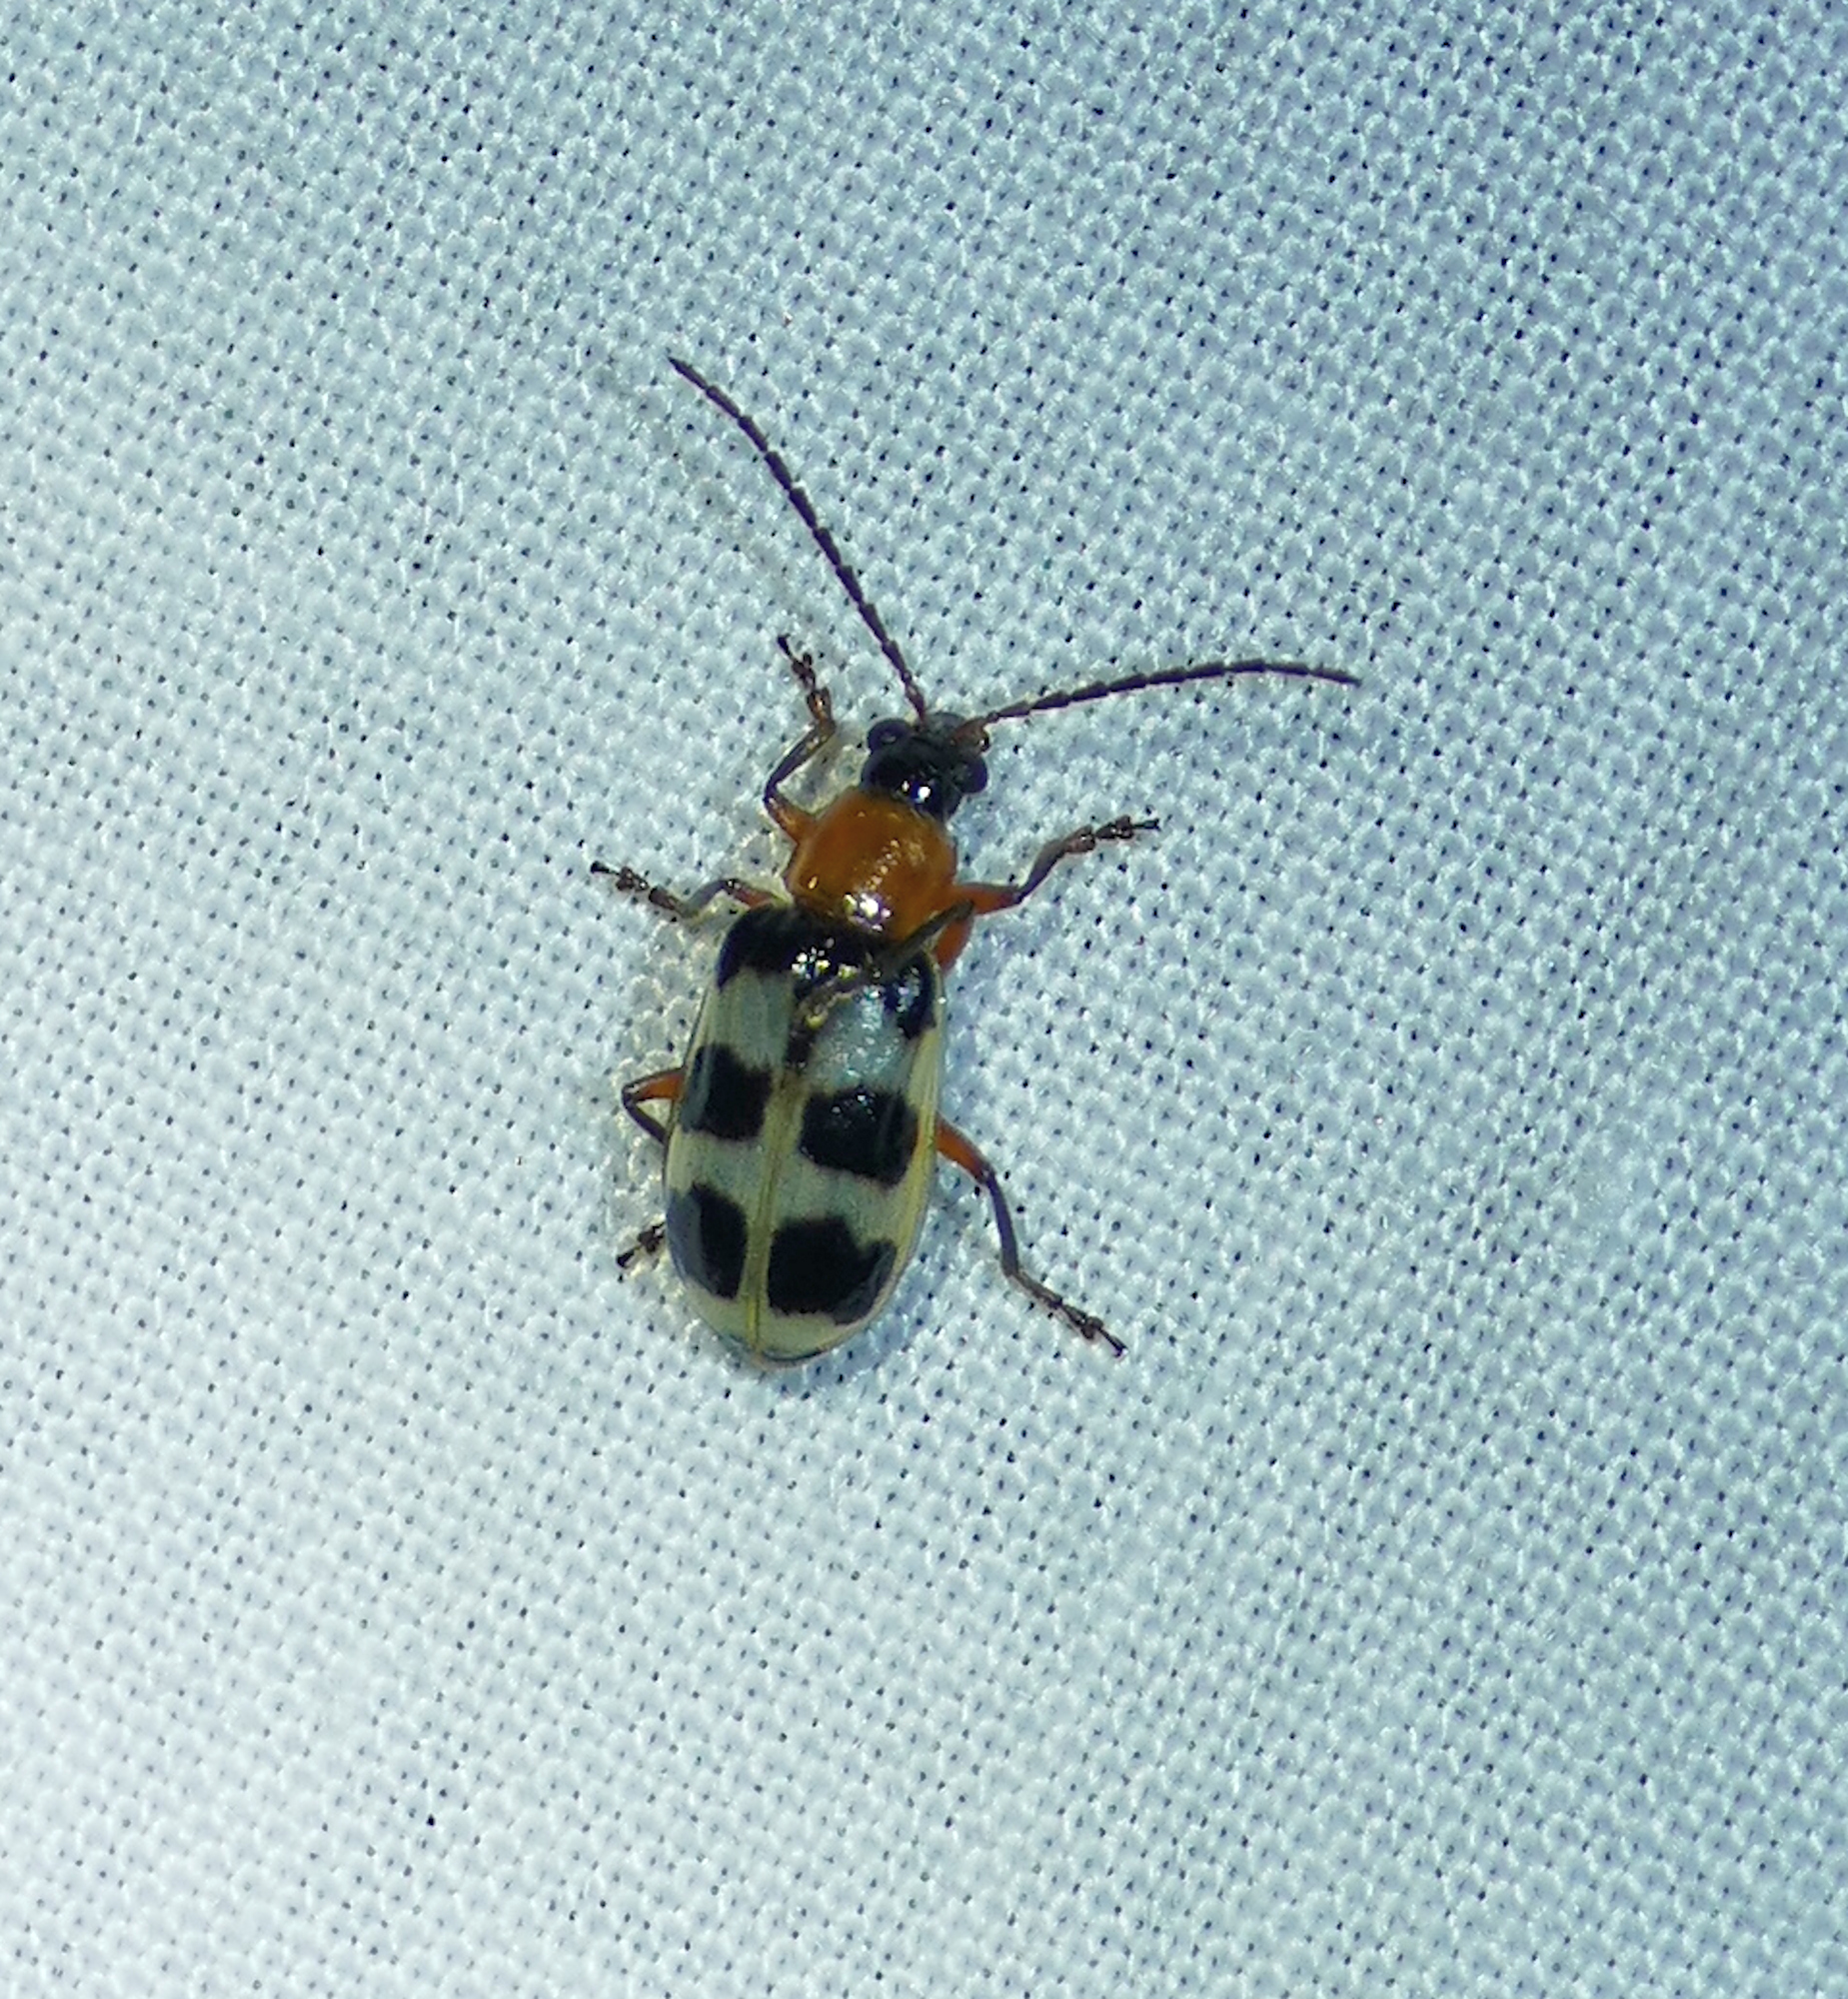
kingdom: Animalia
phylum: Arthropoda
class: Insecta
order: Coleoptera
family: Chrysomelidae
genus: Paranapiacaba
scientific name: Paranapiacaba tricincta
